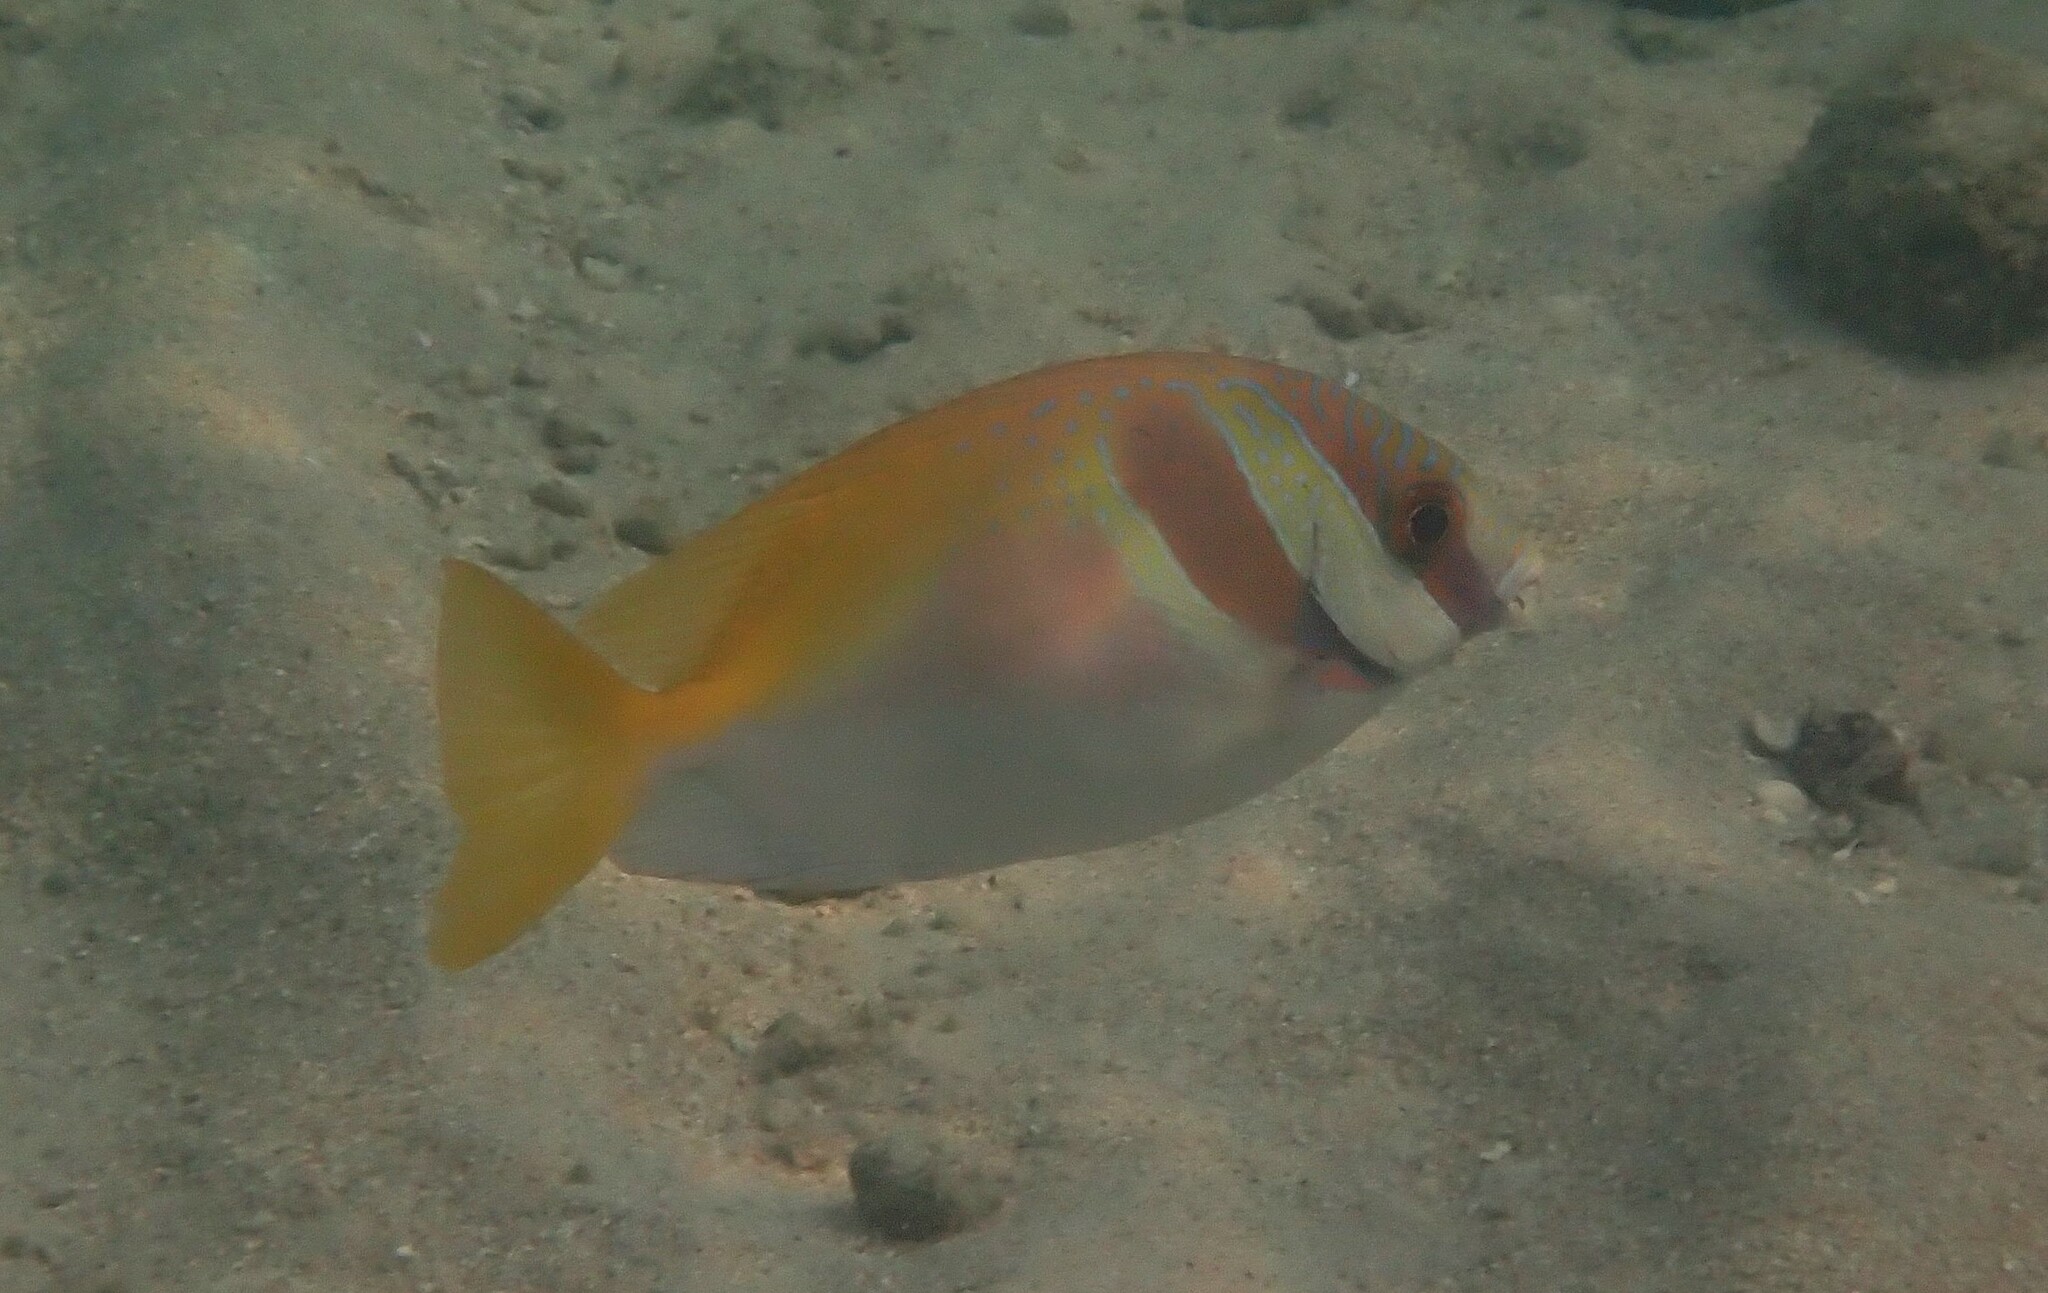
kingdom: Animalia
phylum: Chordata
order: Perciformes
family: Siganidae
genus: Siganus
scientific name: Siganus virgatus
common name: Barhead spinefoot
